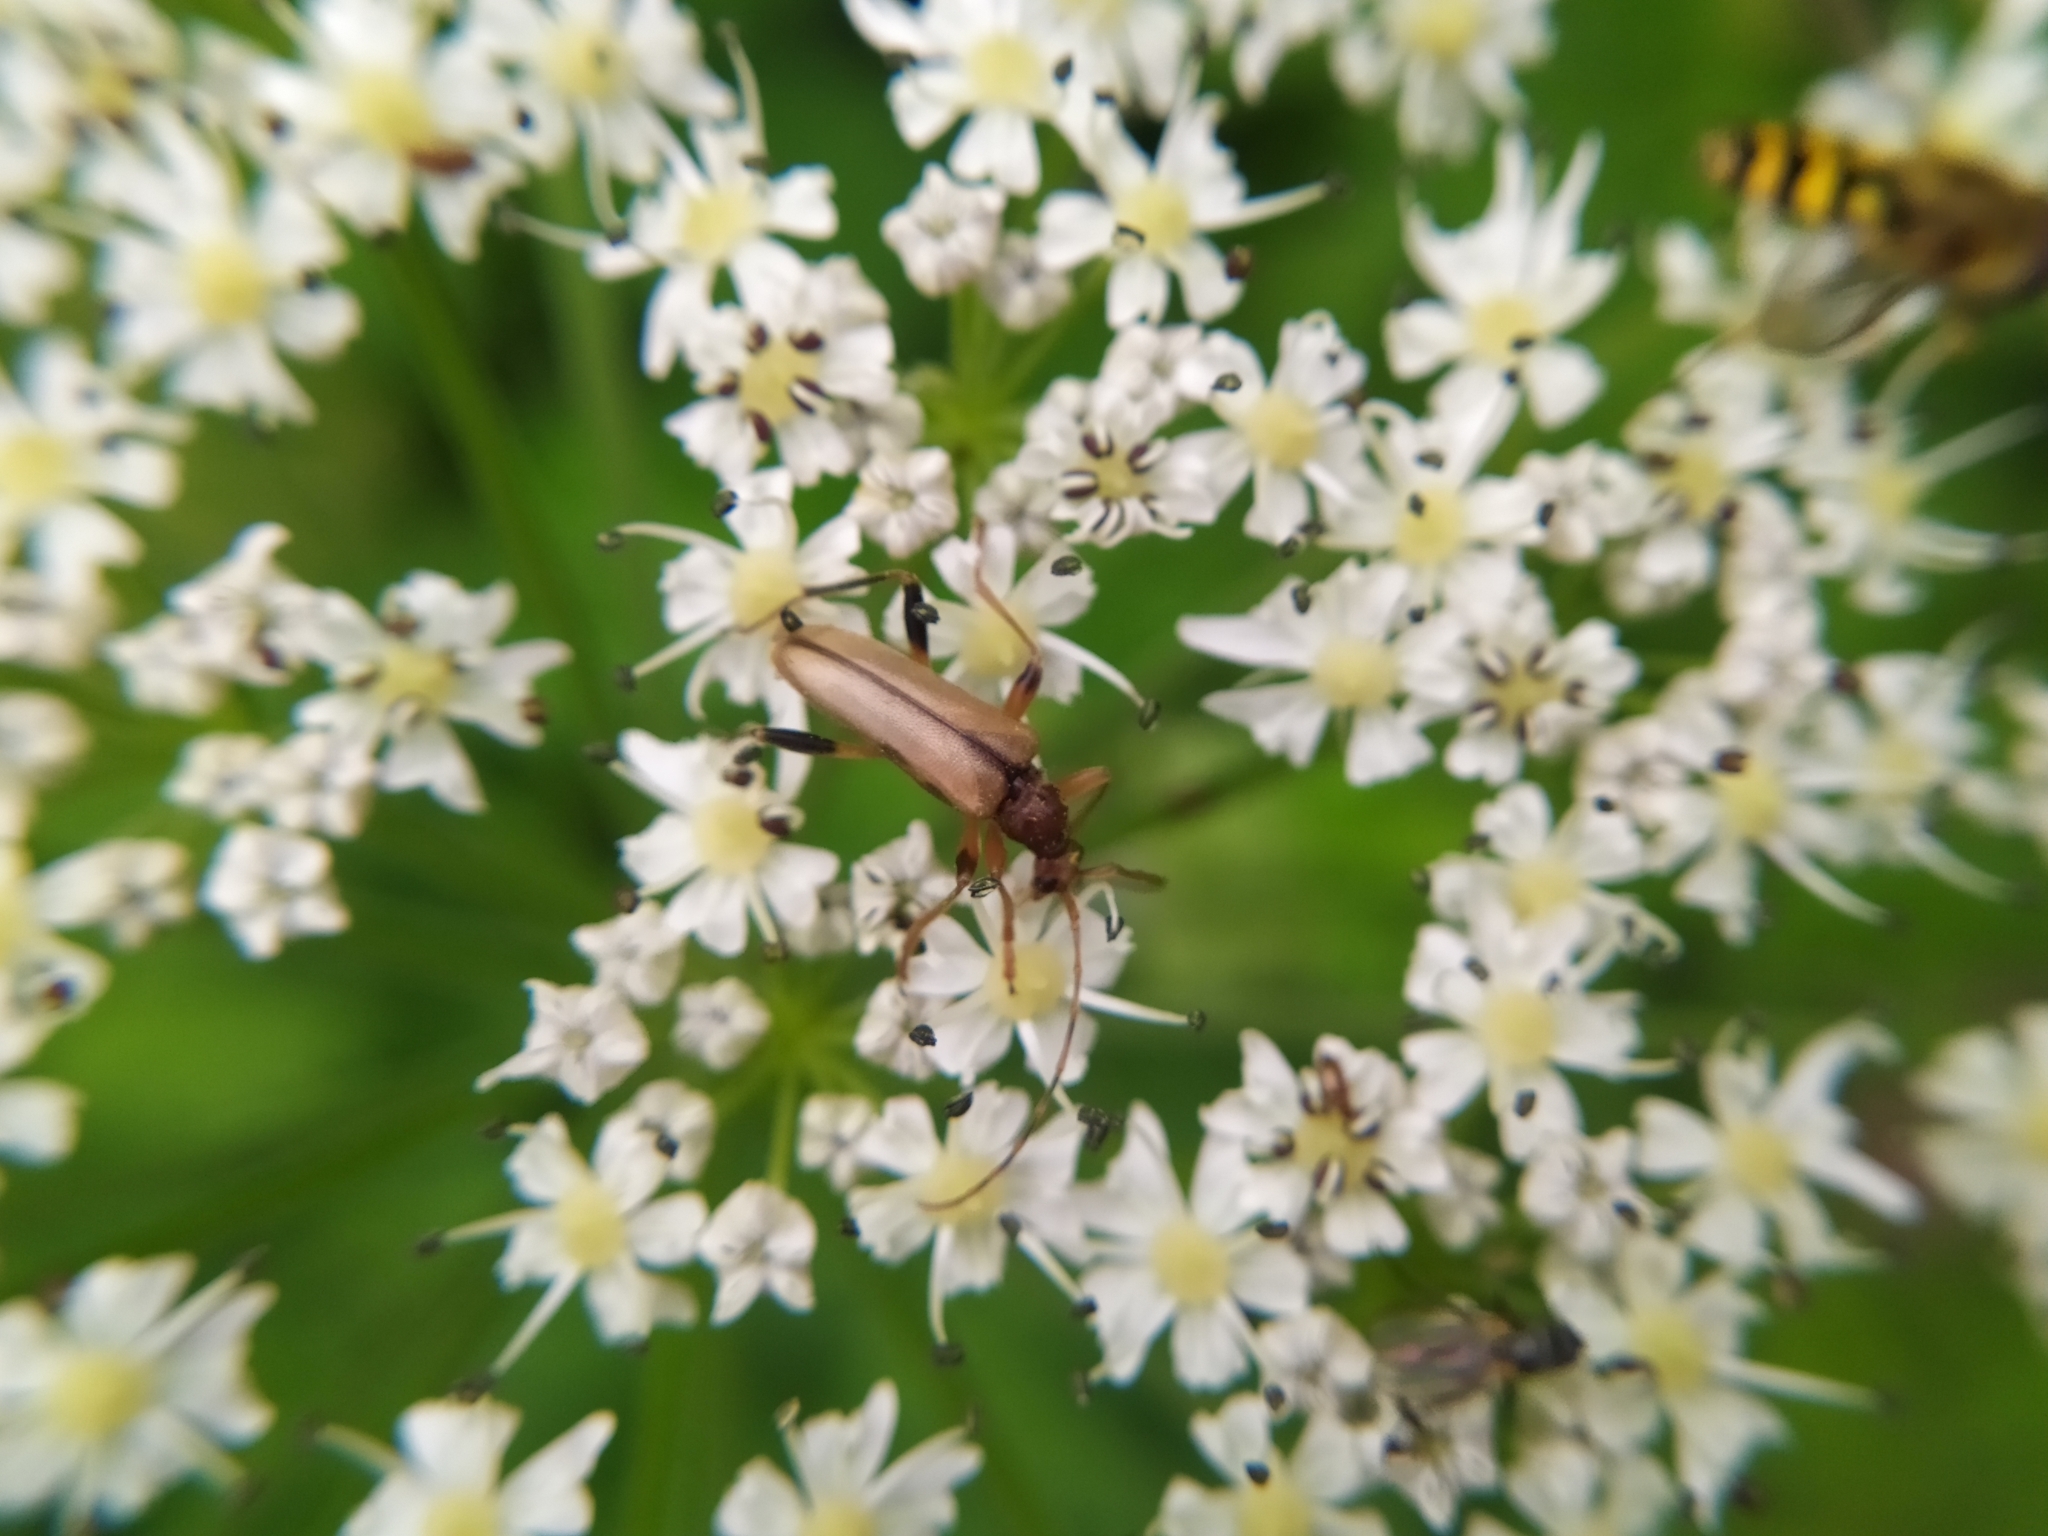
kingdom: Animalia
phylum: Arthropoda
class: Insecta
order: Coleoptera
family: Cerambycidae
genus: Pidonia
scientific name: Pidonia lurida
